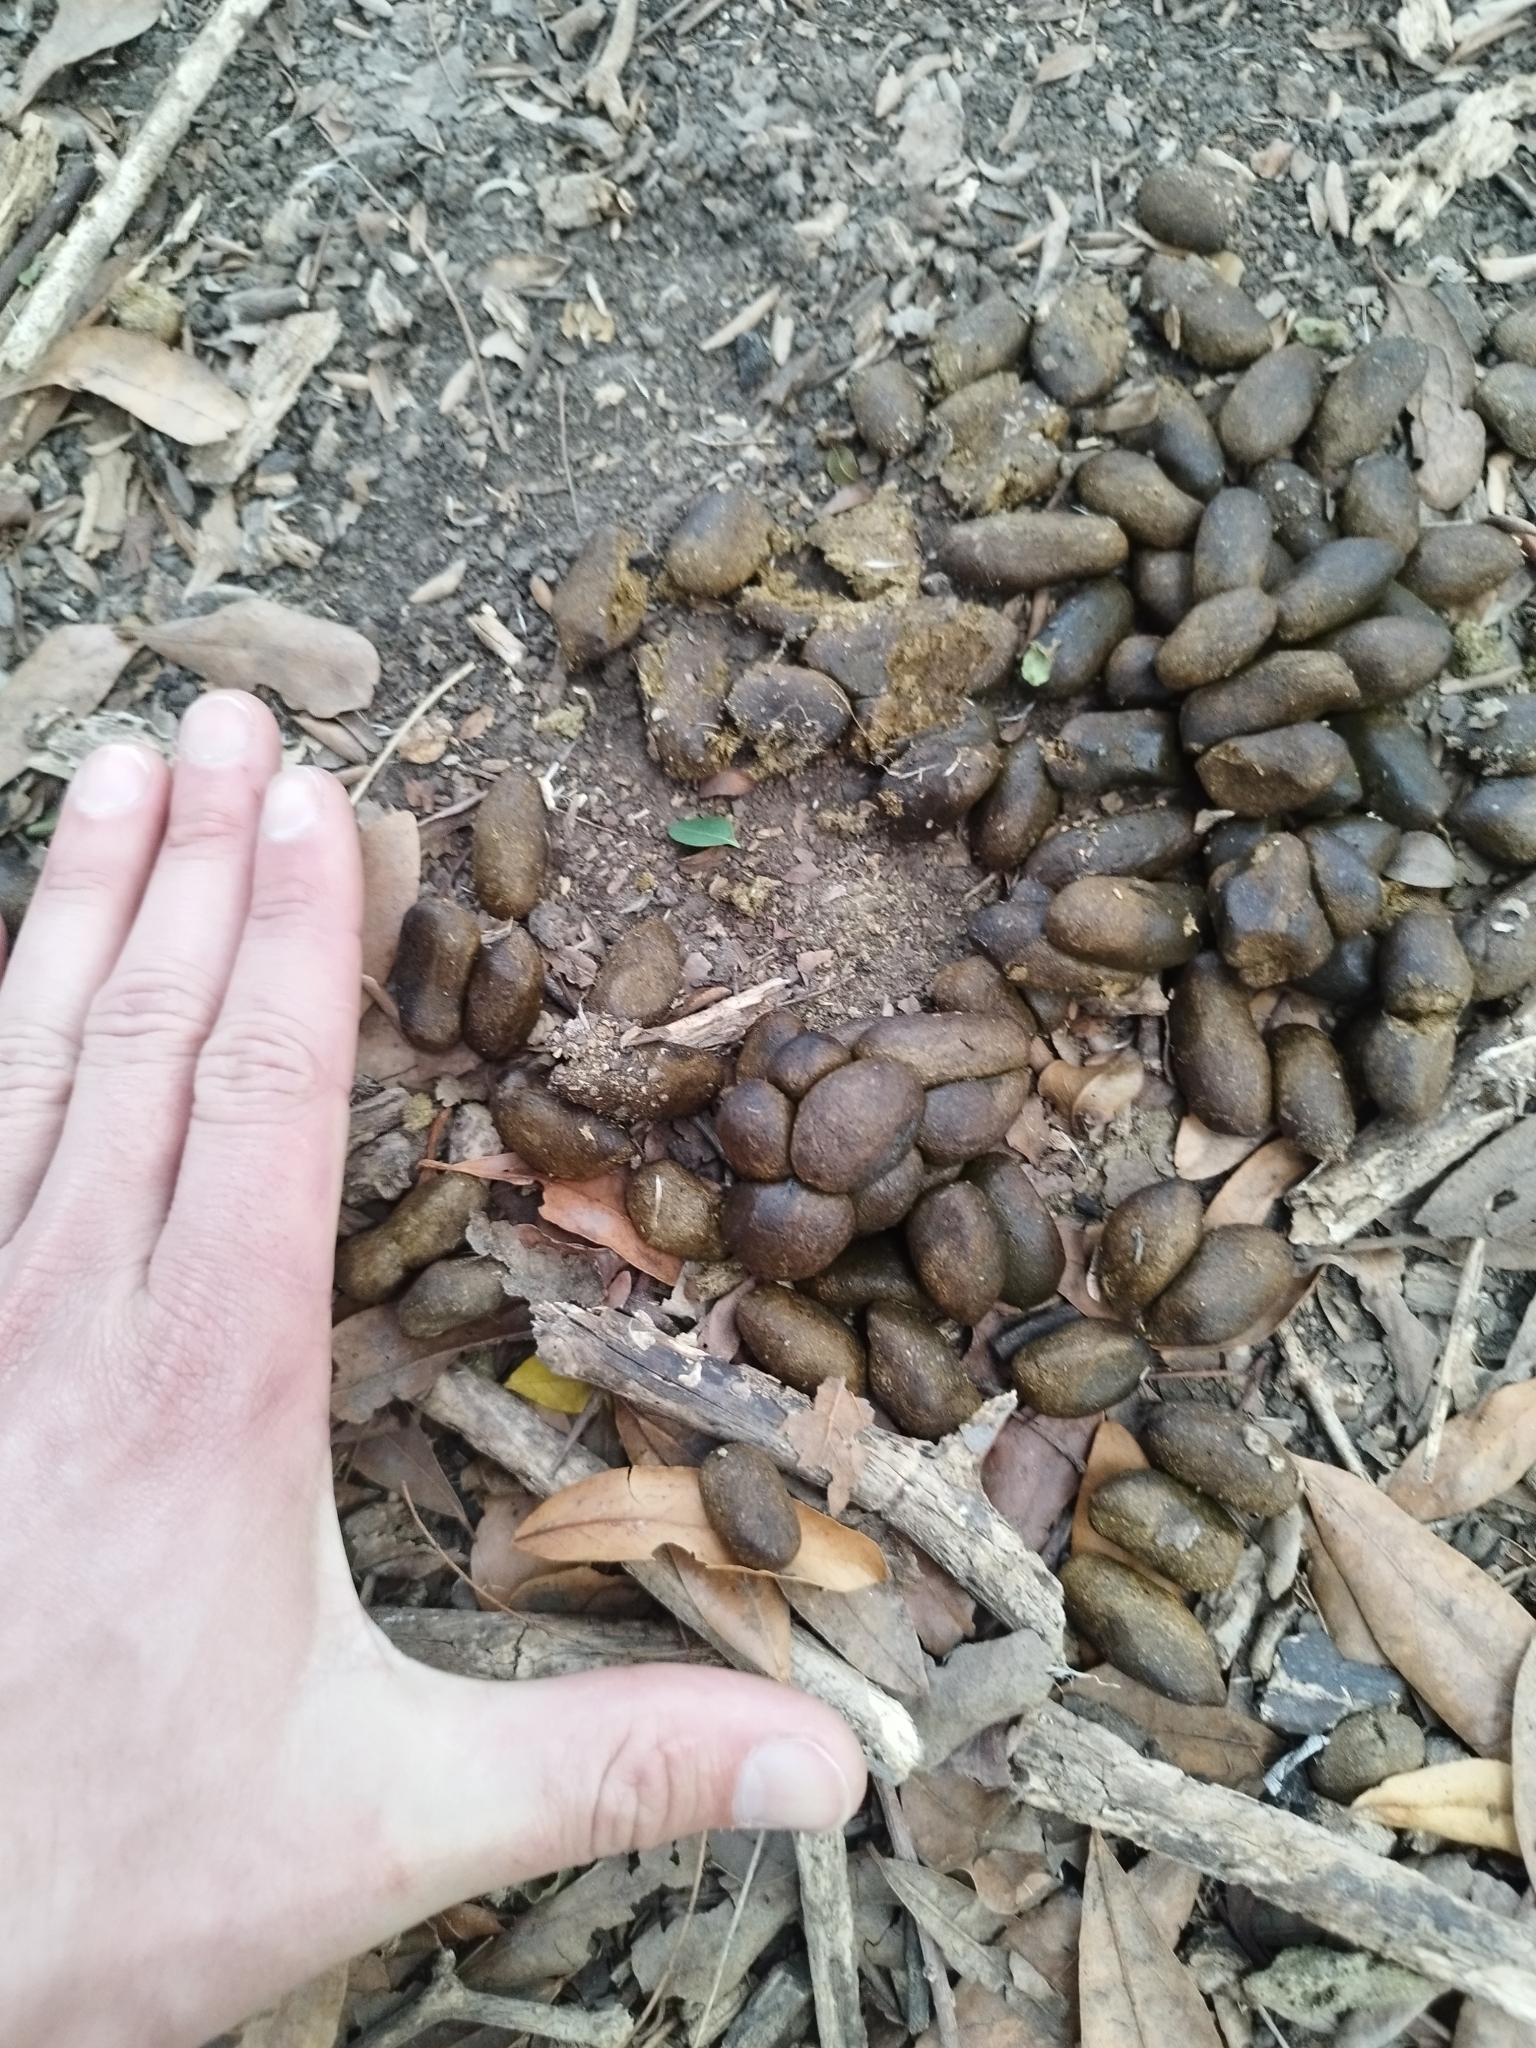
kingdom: Animalia
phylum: Chordata
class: Mammalia
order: Rodentia
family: Caviidae
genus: Hydrochoerus
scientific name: Hydrochoerus hydrochaeris
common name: Capybara
